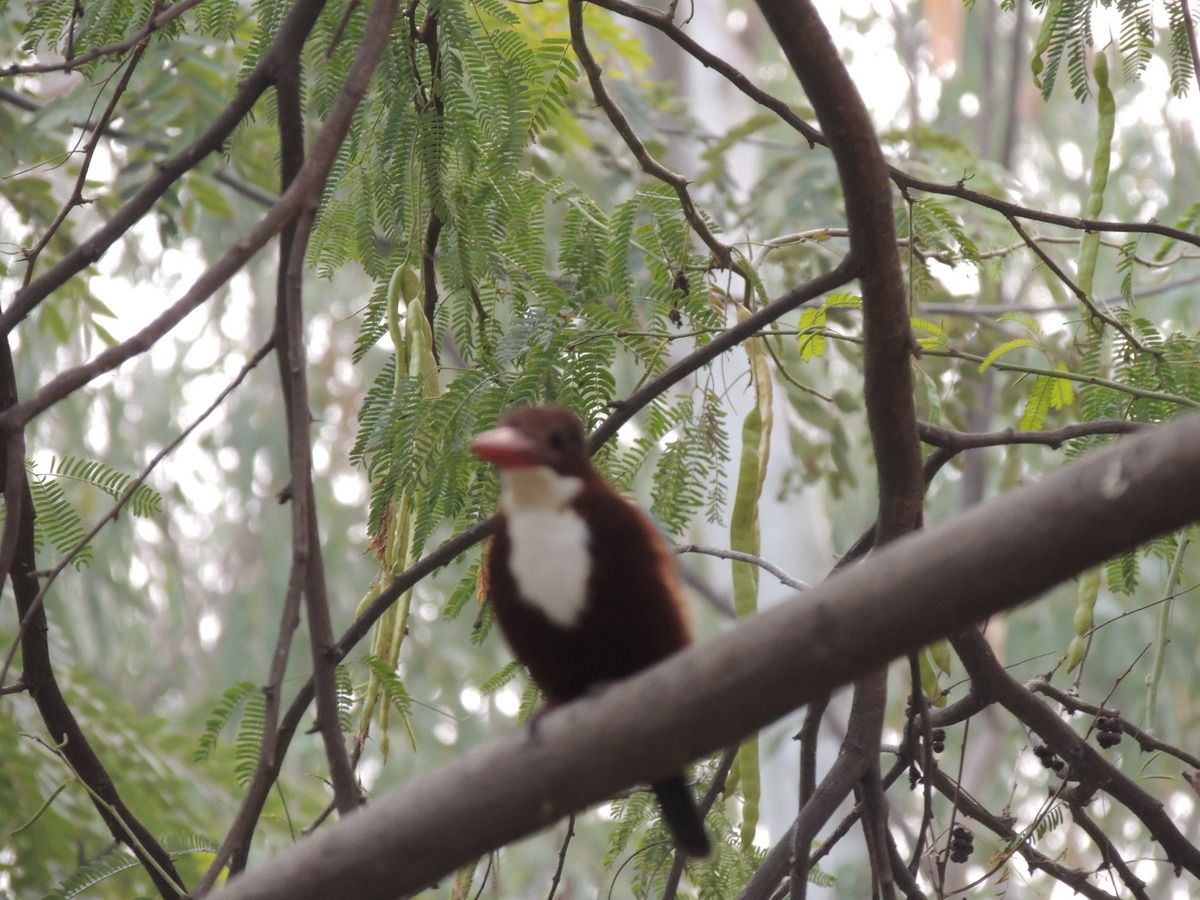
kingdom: Animalia
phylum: Chordata
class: Aves
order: Coraciiformes
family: Alcedinidae
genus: Halcyon
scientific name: Halcyon smyrnensis
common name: White-throated kingfisher
